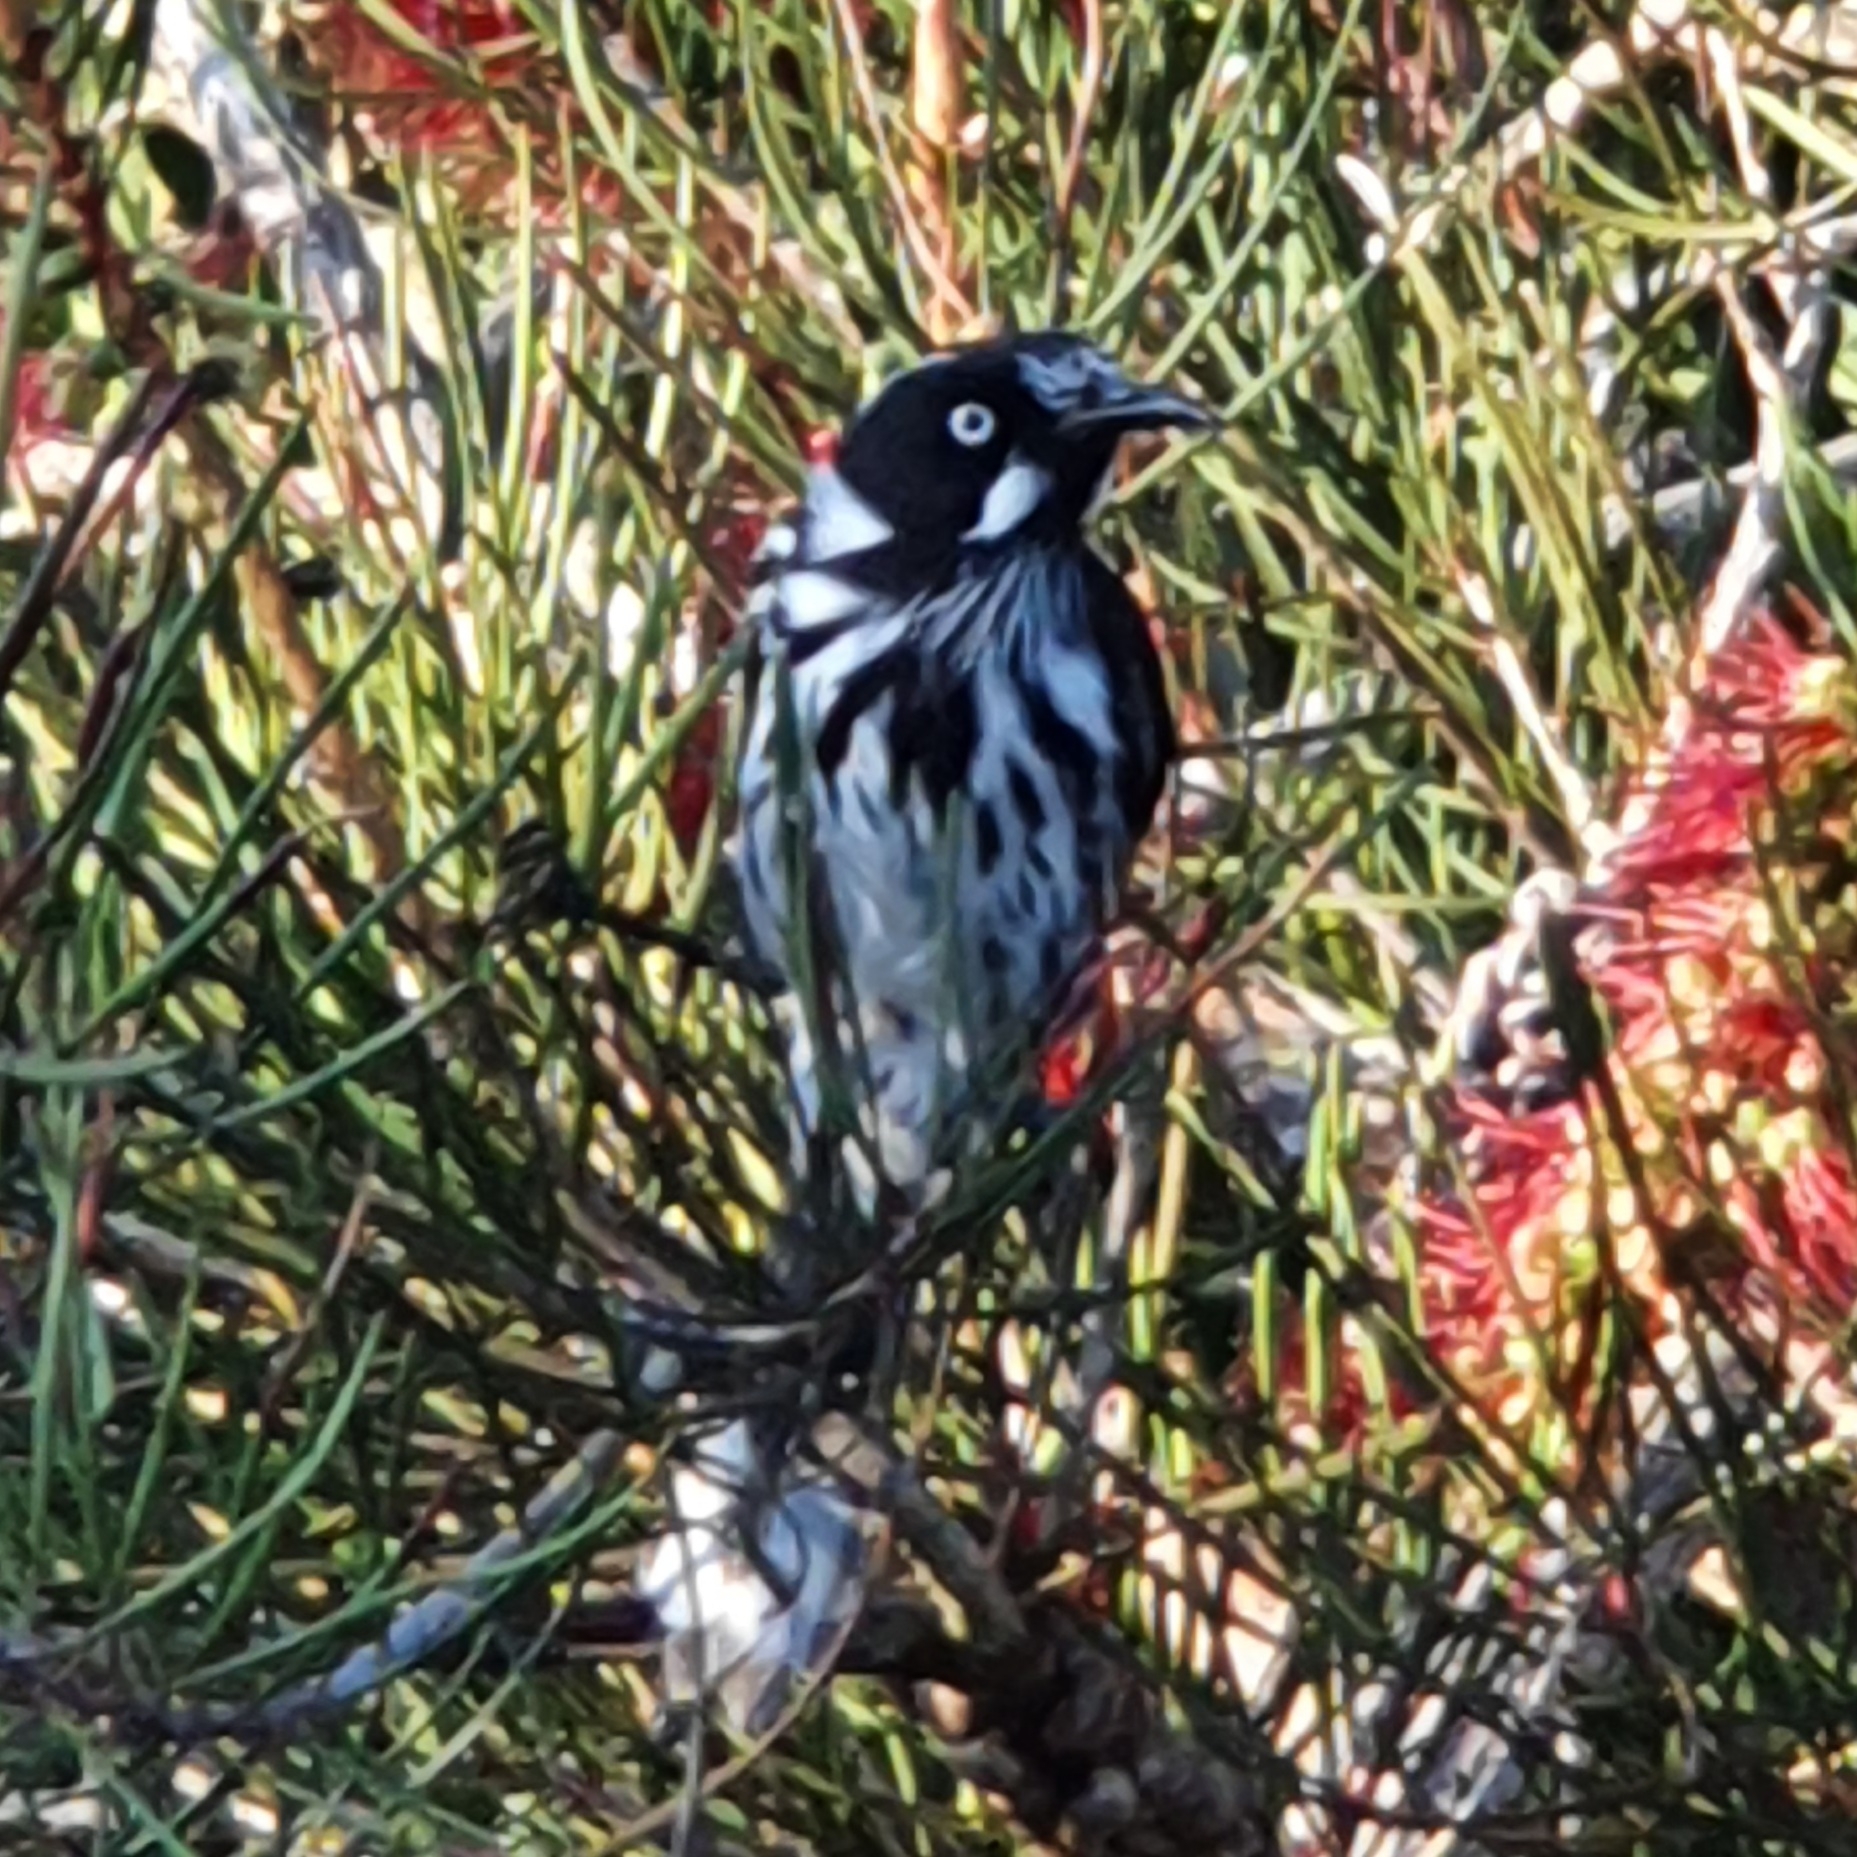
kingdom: Animalia
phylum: Chordata
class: Aves
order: Passeriformes
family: Meliphagidae
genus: Phylidonyris
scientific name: Phylidonyris novaehollandiae
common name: New holland honeyeater
